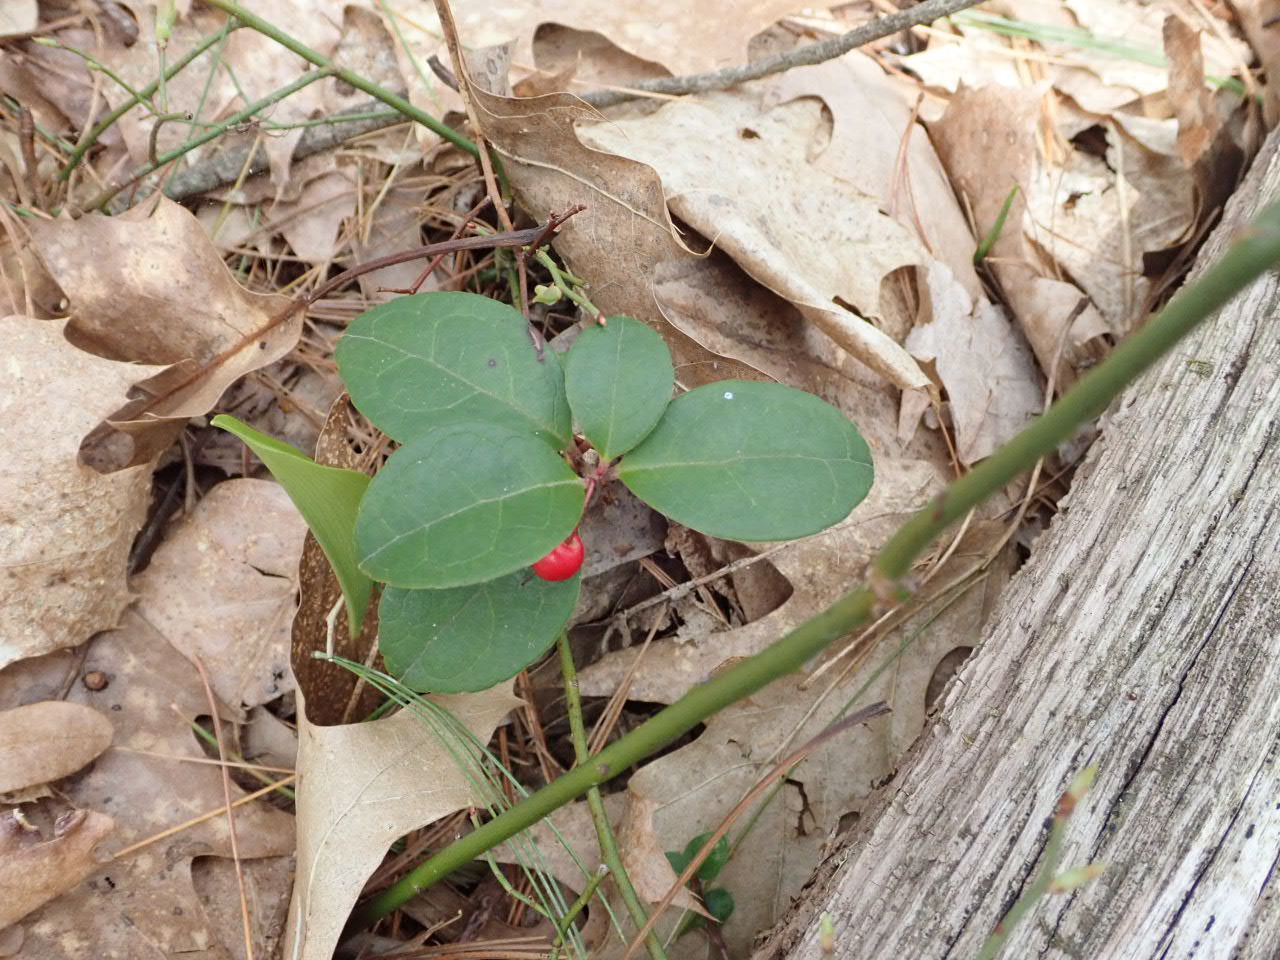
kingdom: Plantae
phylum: Tracheophyta
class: Magnoliopsida
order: Ericales
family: Ericaceae
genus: Gaultheria
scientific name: Gaultheria procumbens
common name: Checkerberry
